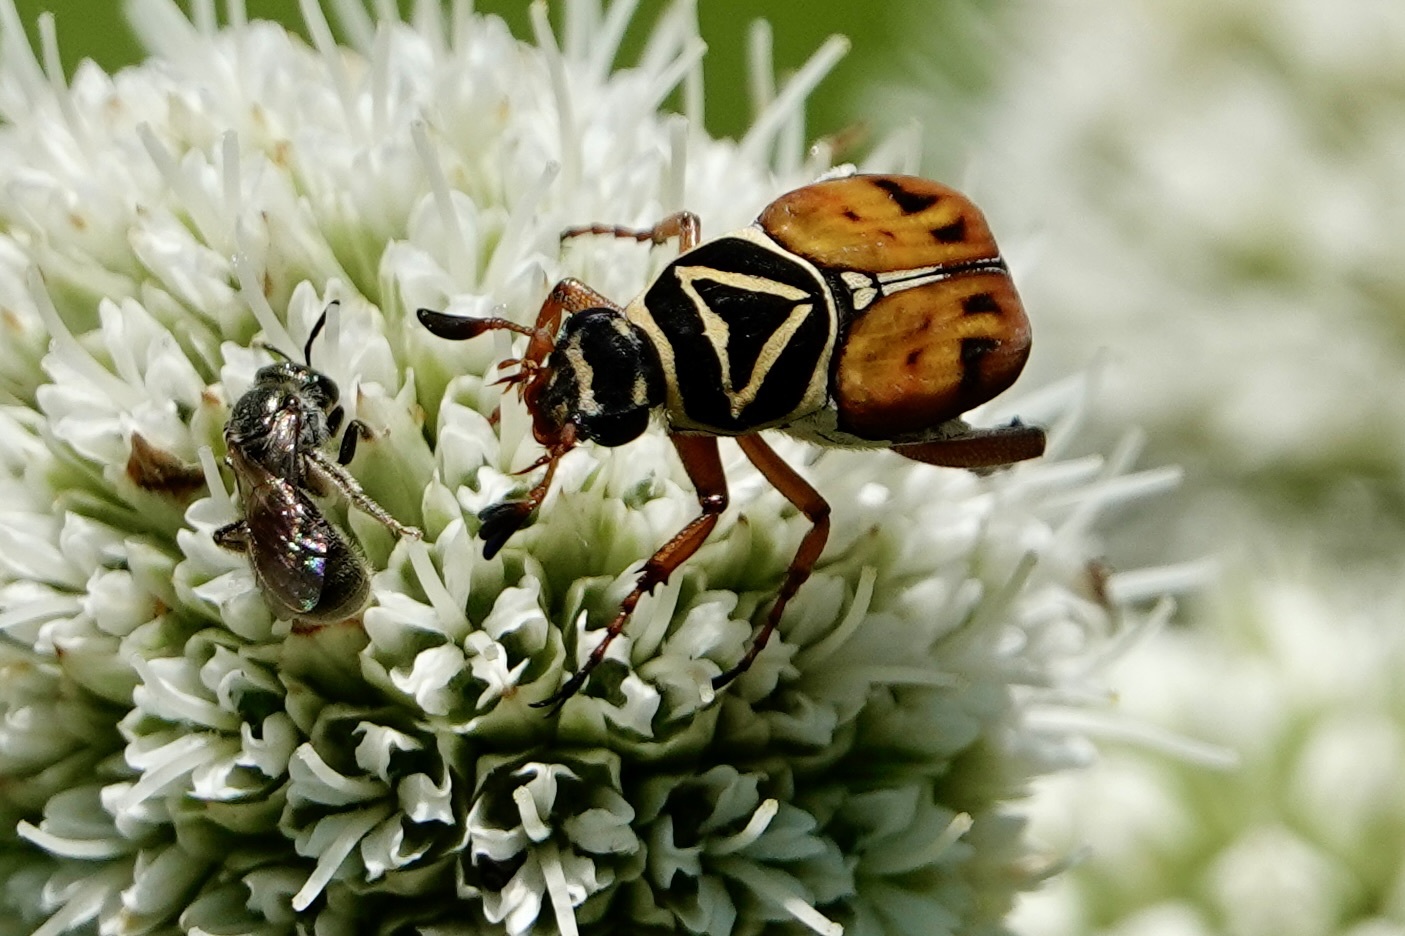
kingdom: Animalia
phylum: Arthropoda
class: Insecta
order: Coleoptera
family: Scarabaeidae
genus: Trigonopeltastes
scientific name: Trigonopeltastes delta
